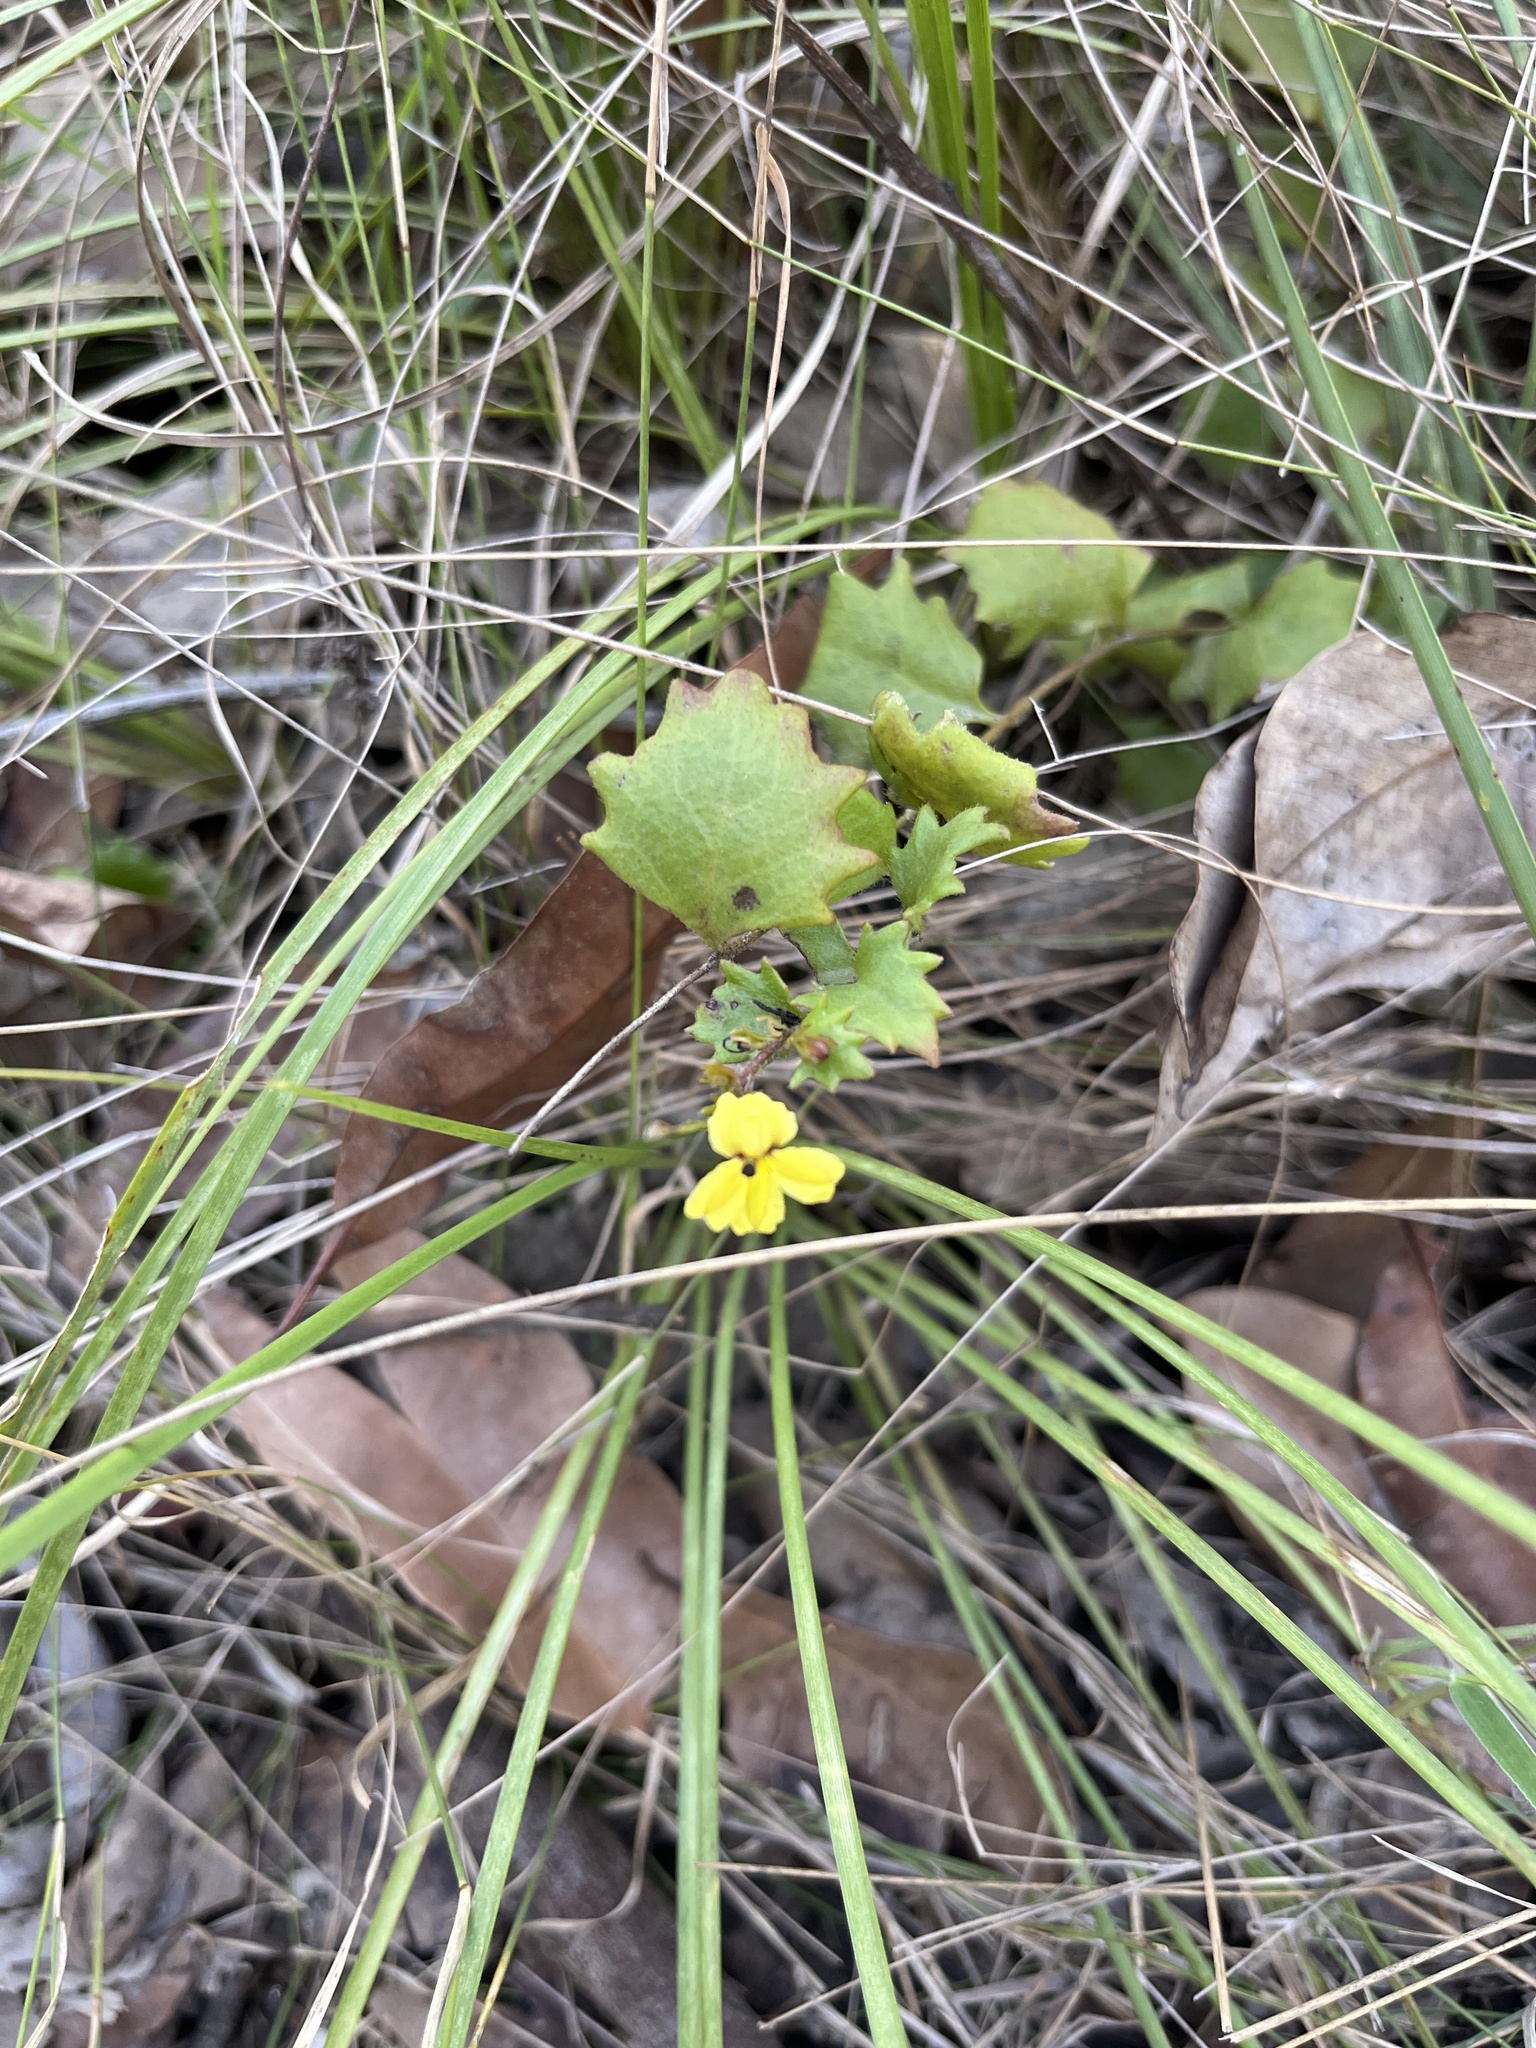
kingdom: Plantae
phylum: Tracheophyta
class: Magnoliopsida
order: Asterales
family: Goodeniaceae
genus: Goodenia
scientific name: Goodenia rotundifolia
